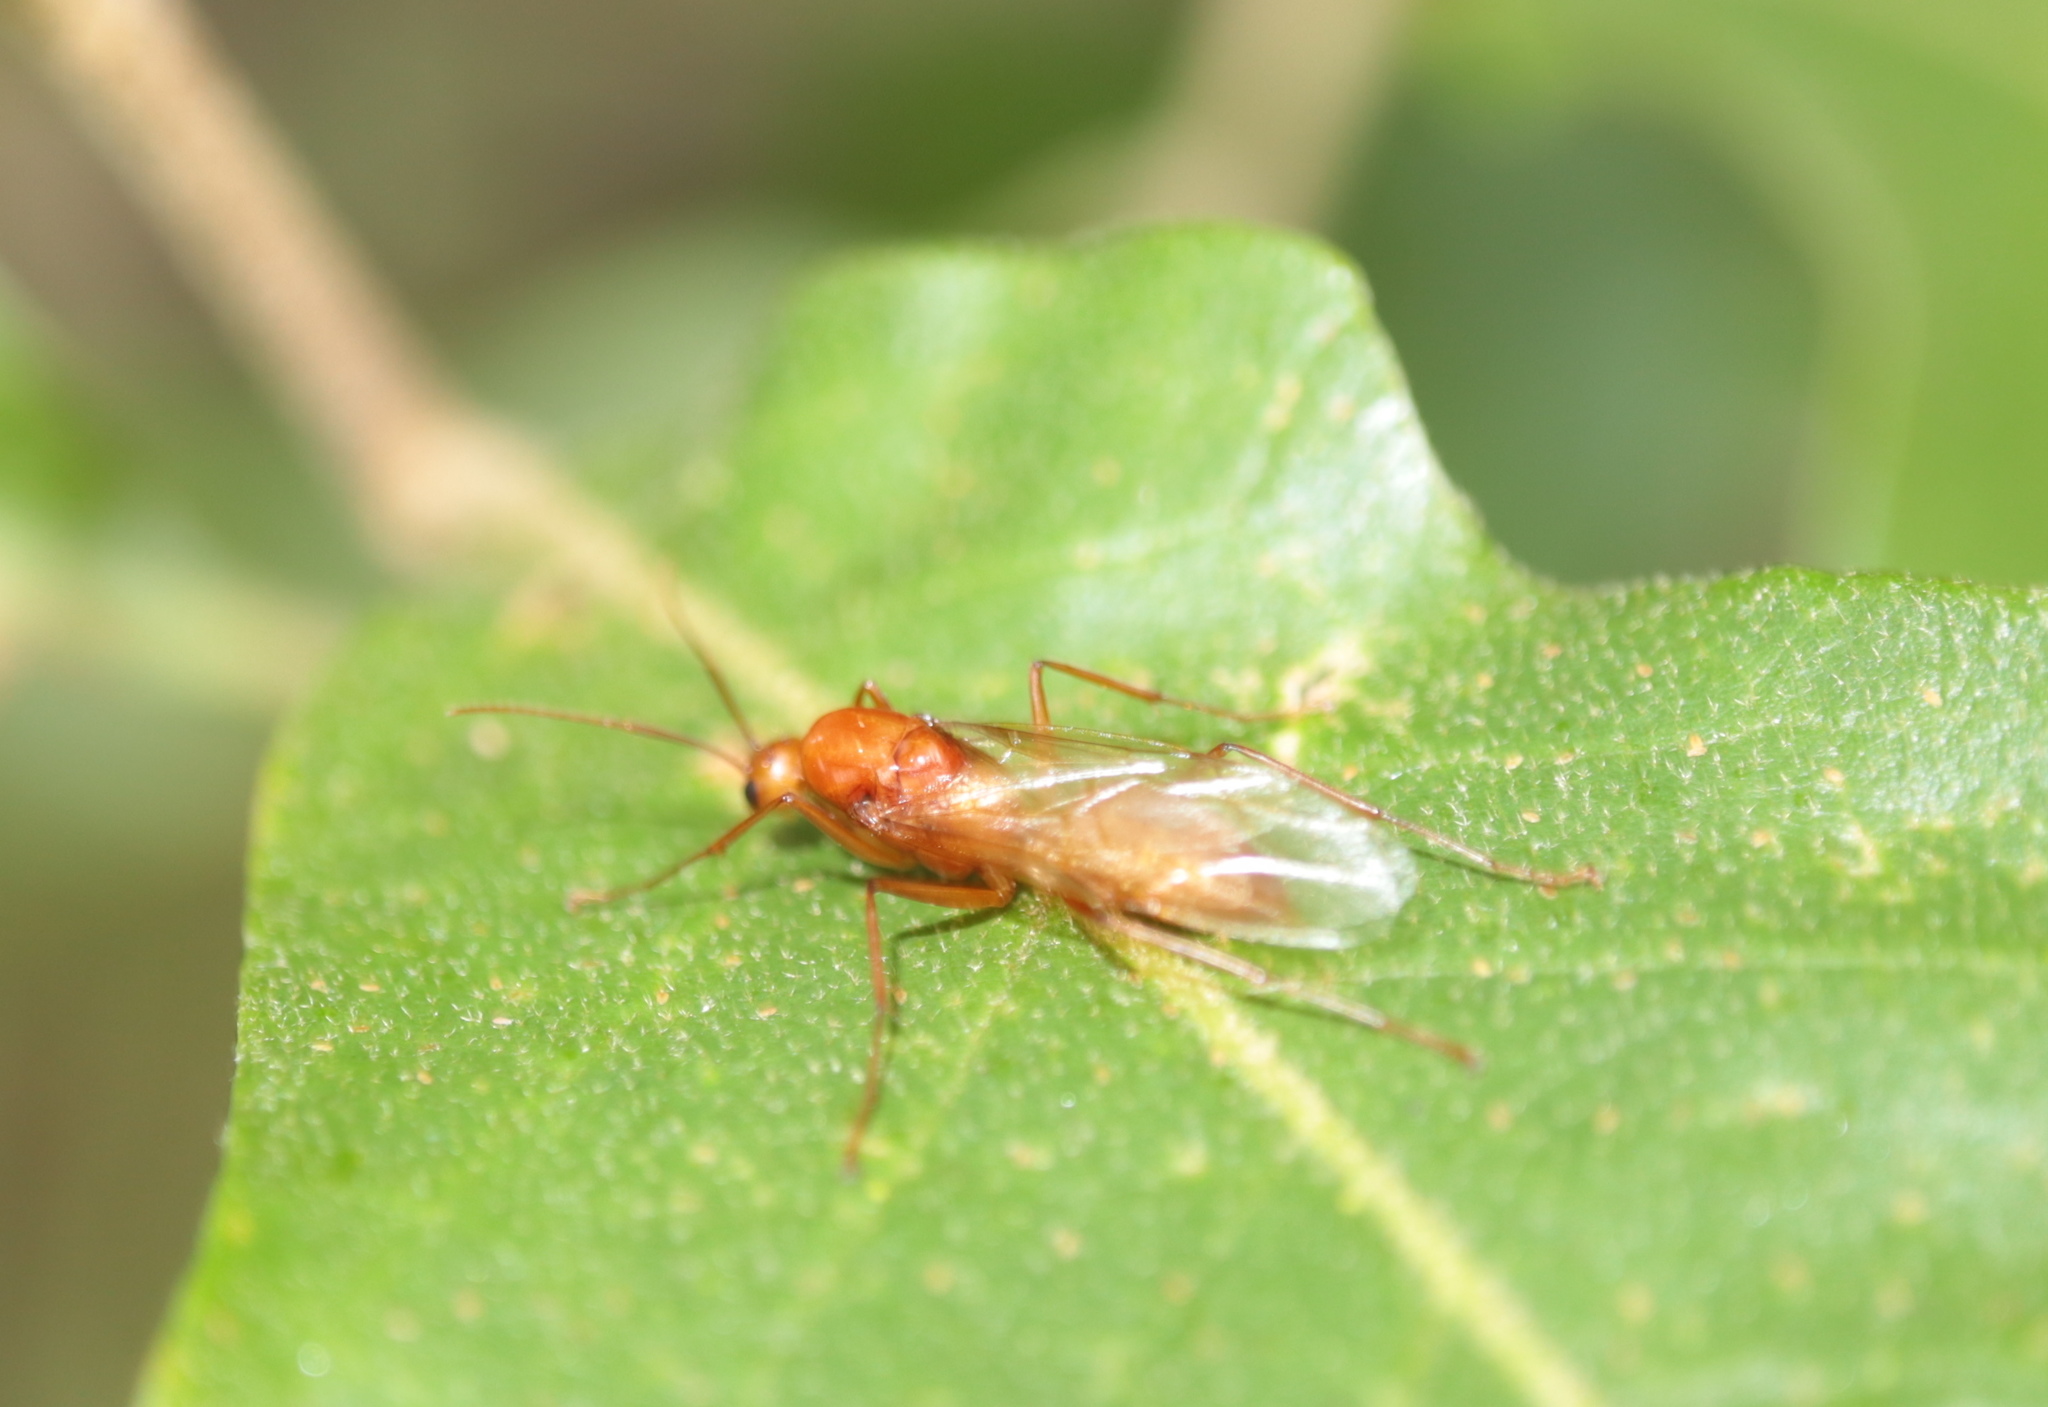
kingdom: Animalia
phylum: Arthropoda
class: Insecta
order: Hymenoptera
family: Formicidae
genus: Camponotus
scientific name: Camponotus castaneus
